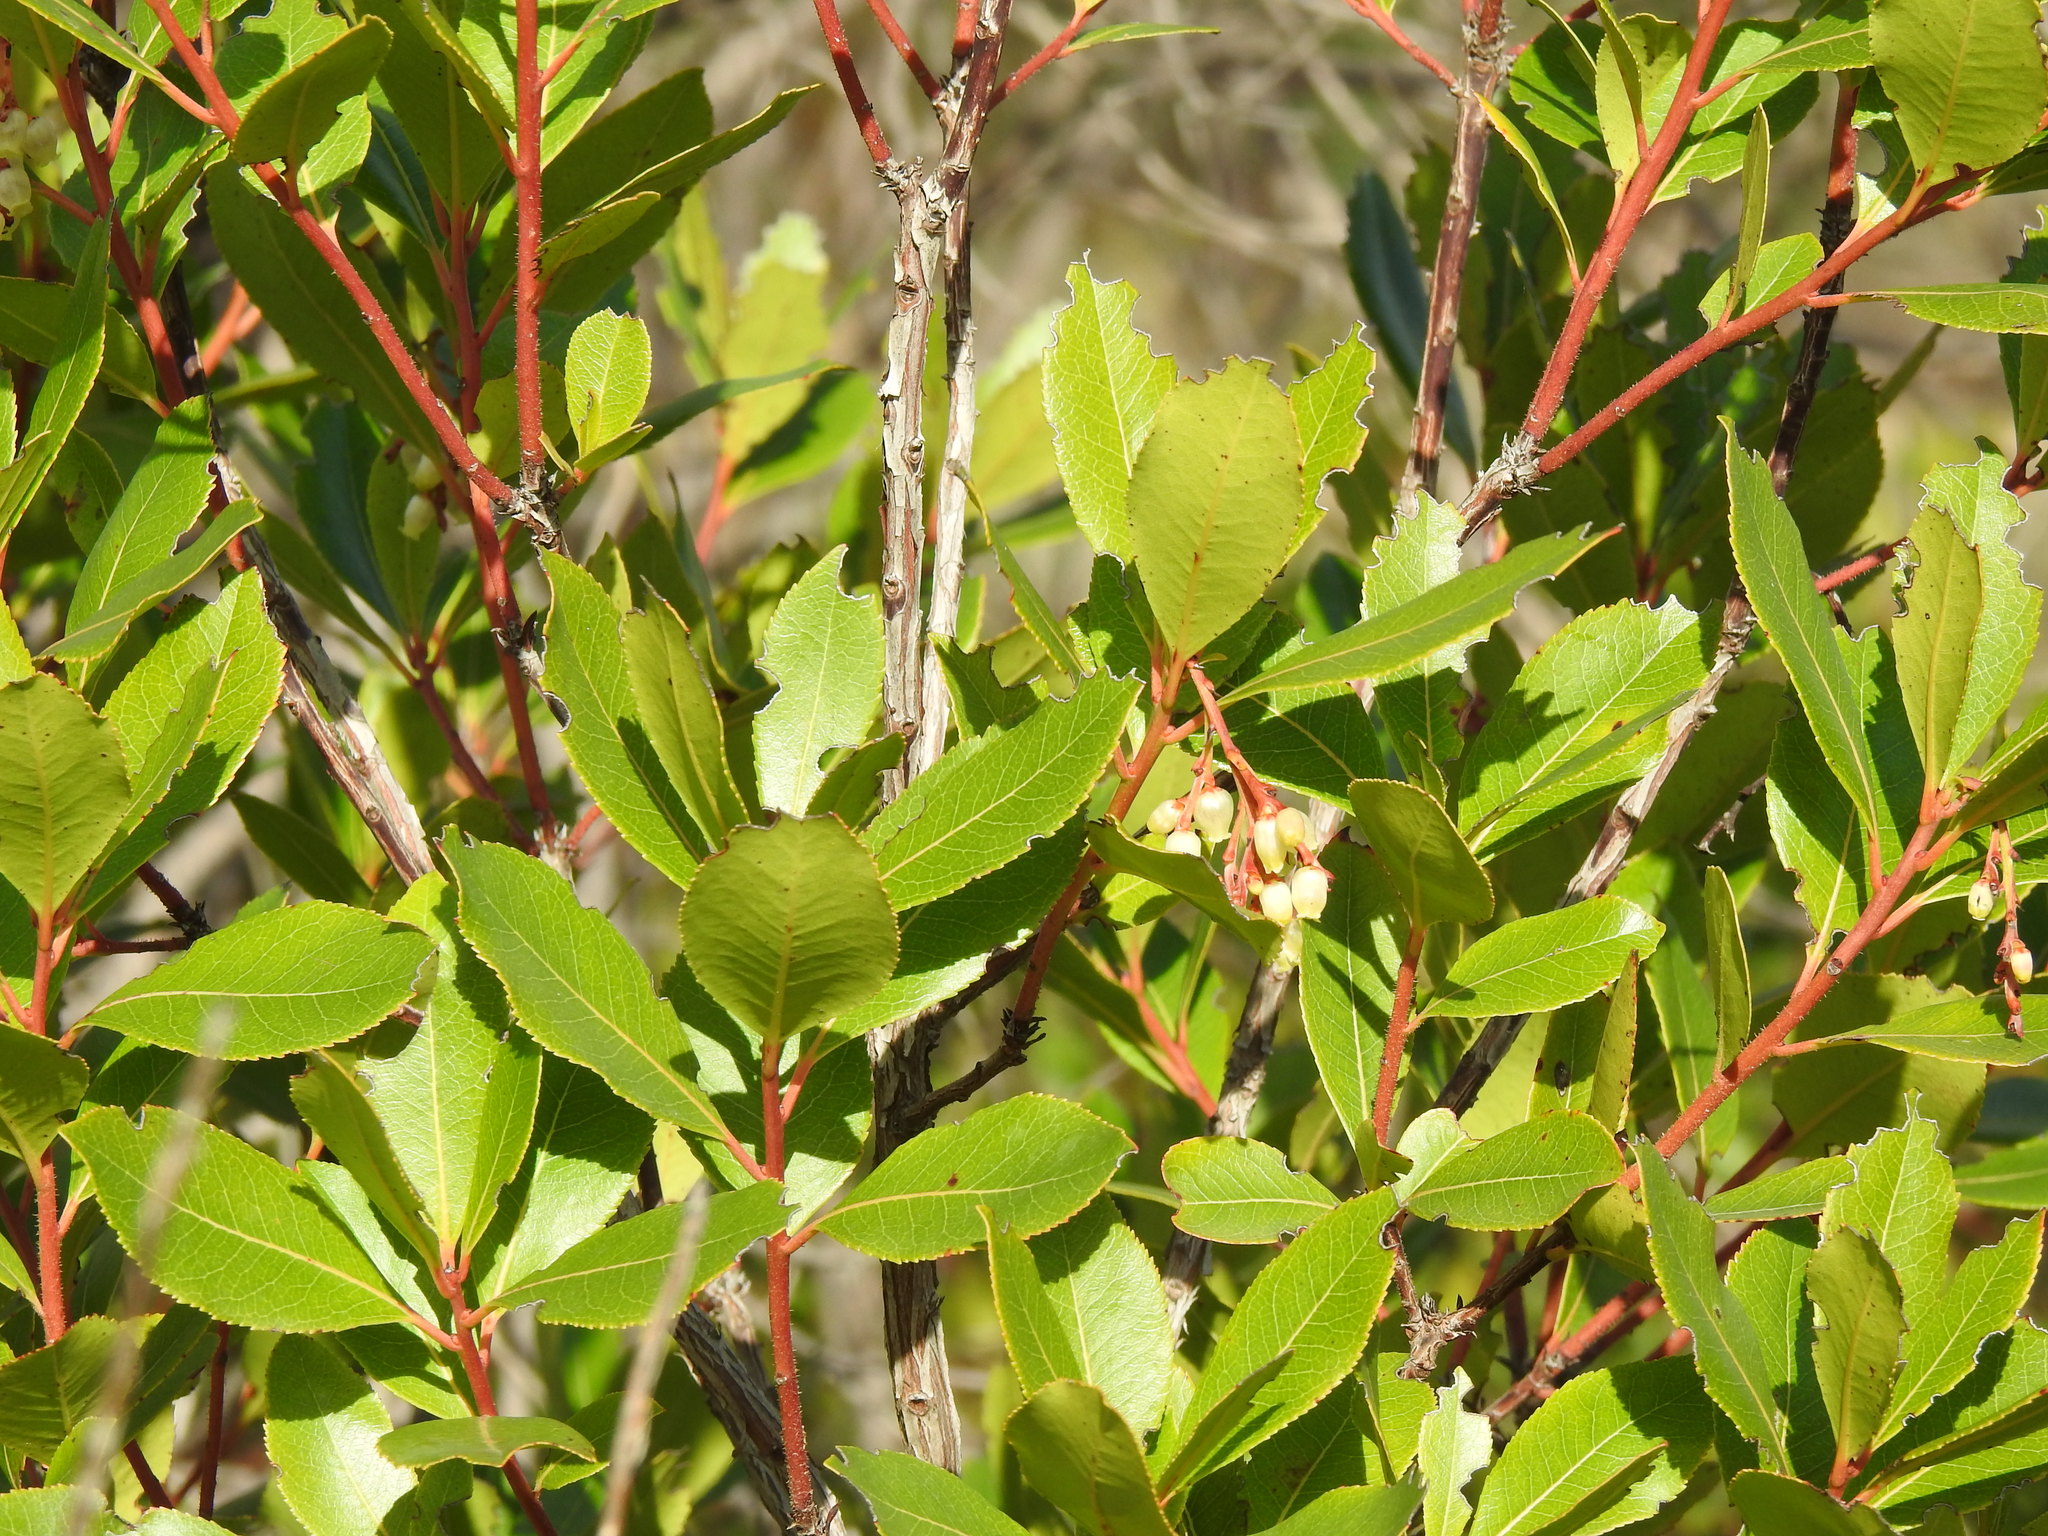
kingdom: Plantae
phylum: Tracheophyta
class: Magnoliopsida
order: Ericales
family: Ericaceae
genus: Arbutus
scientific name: Arbutus unedo
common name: Strawberry-tree
